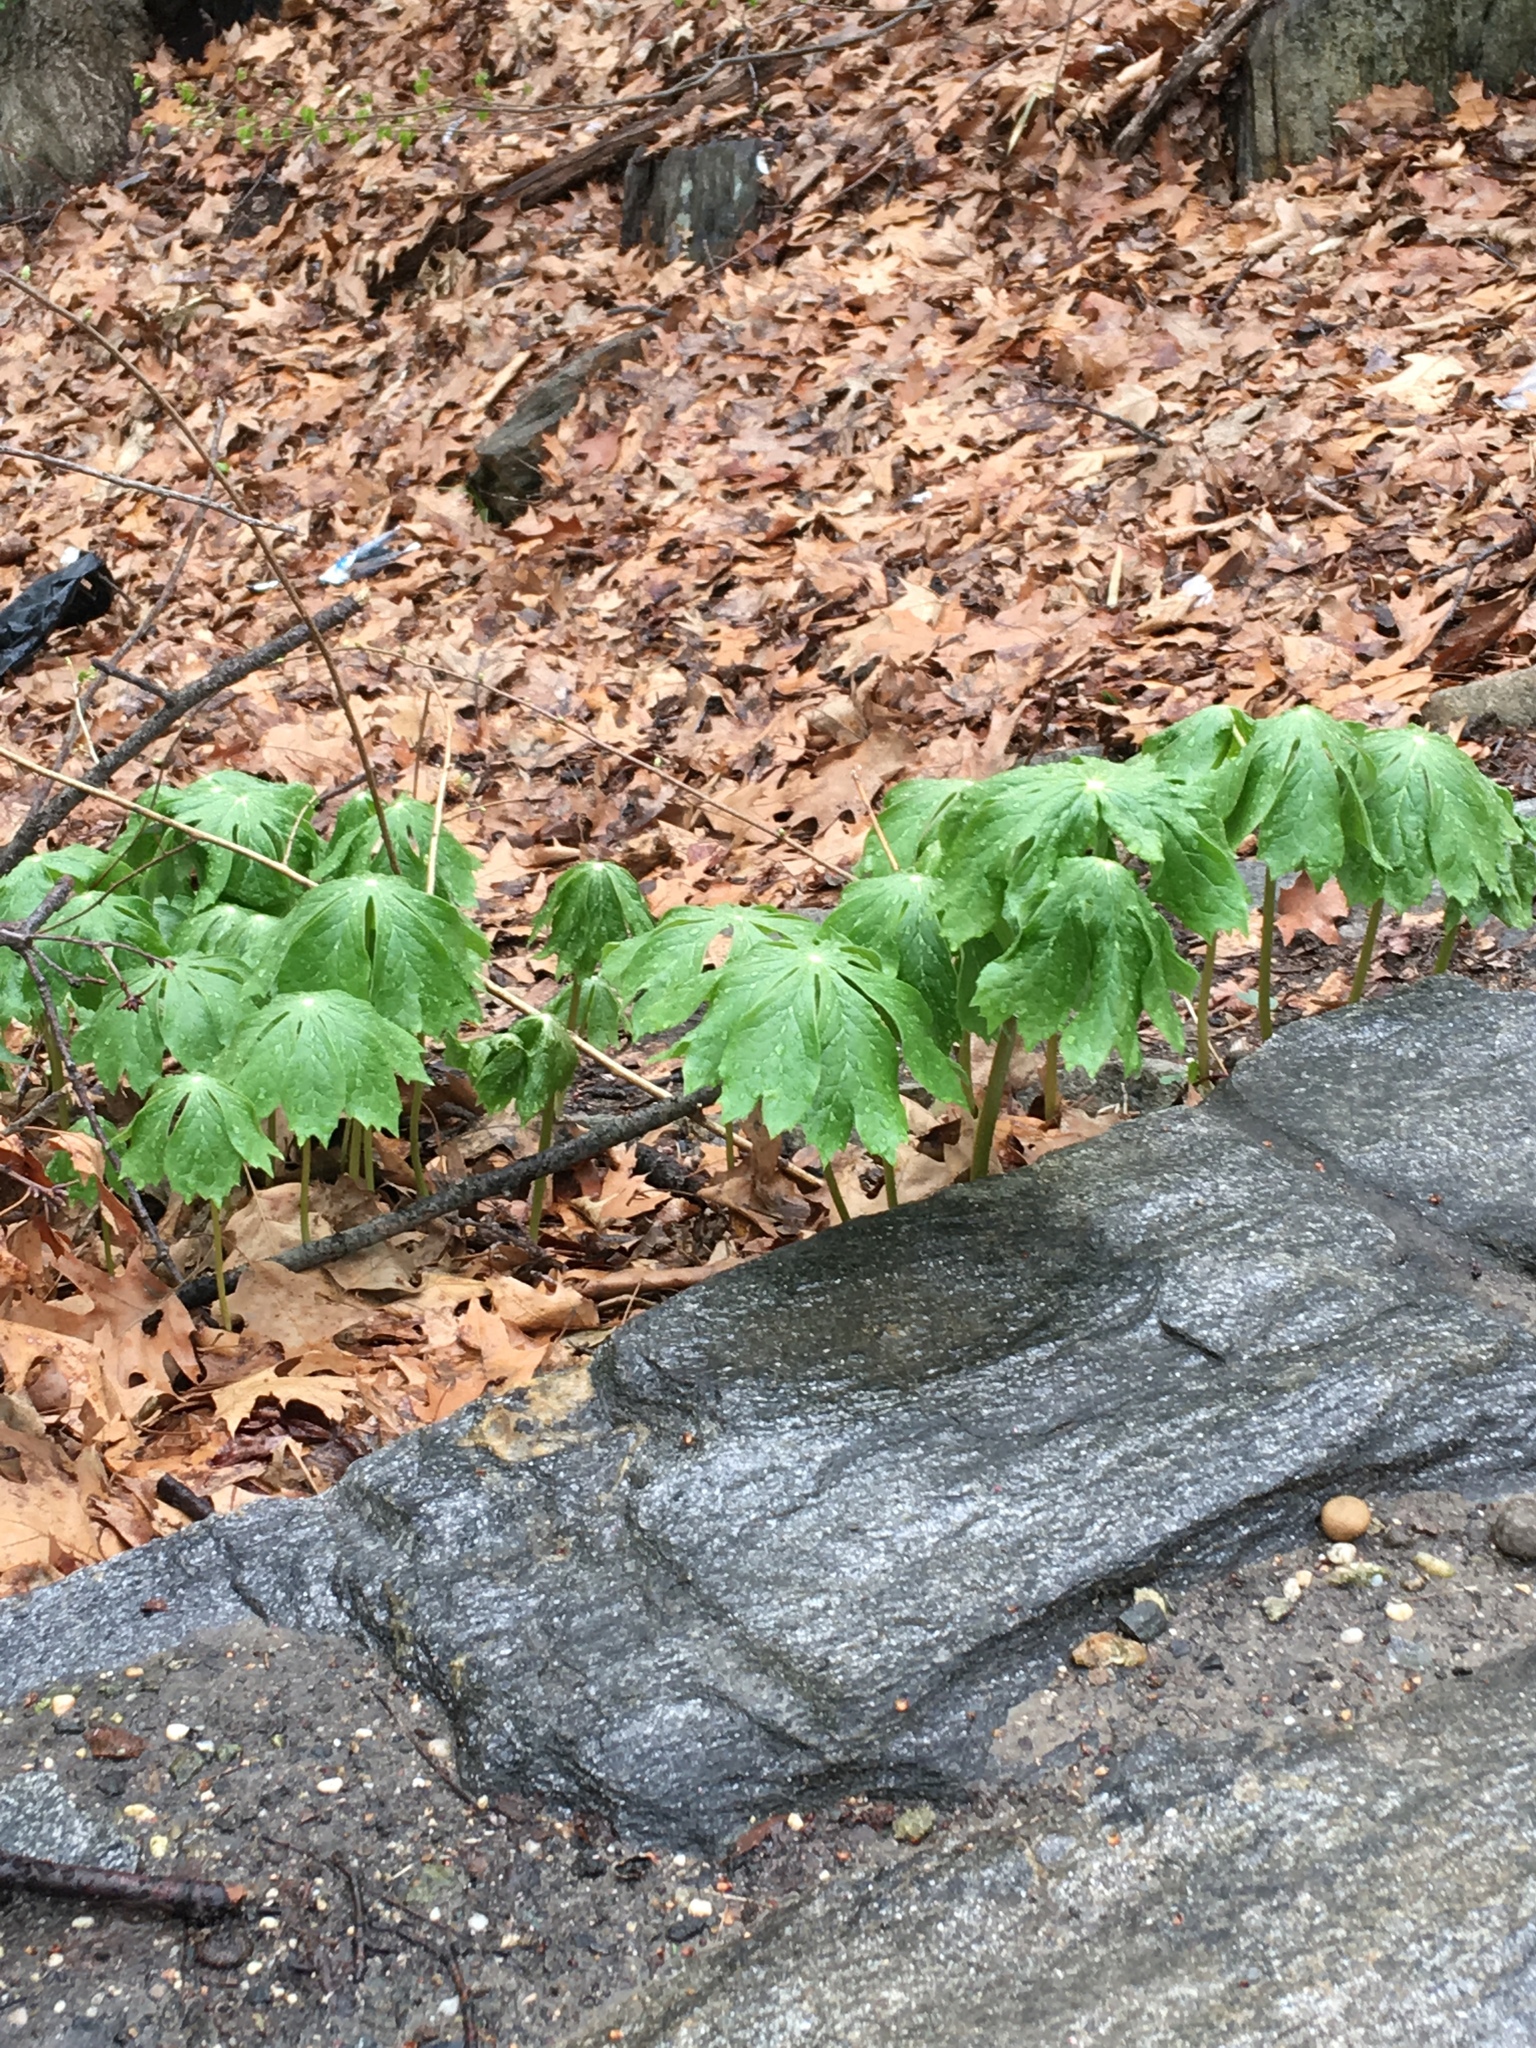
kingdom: Plantae
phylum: Tracheophyta
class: Magnoliopsida
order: Ranunculales
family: Berberidaceae
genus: Podophyllum
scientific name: Podophyllum peltatum
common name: Wild mandrake
